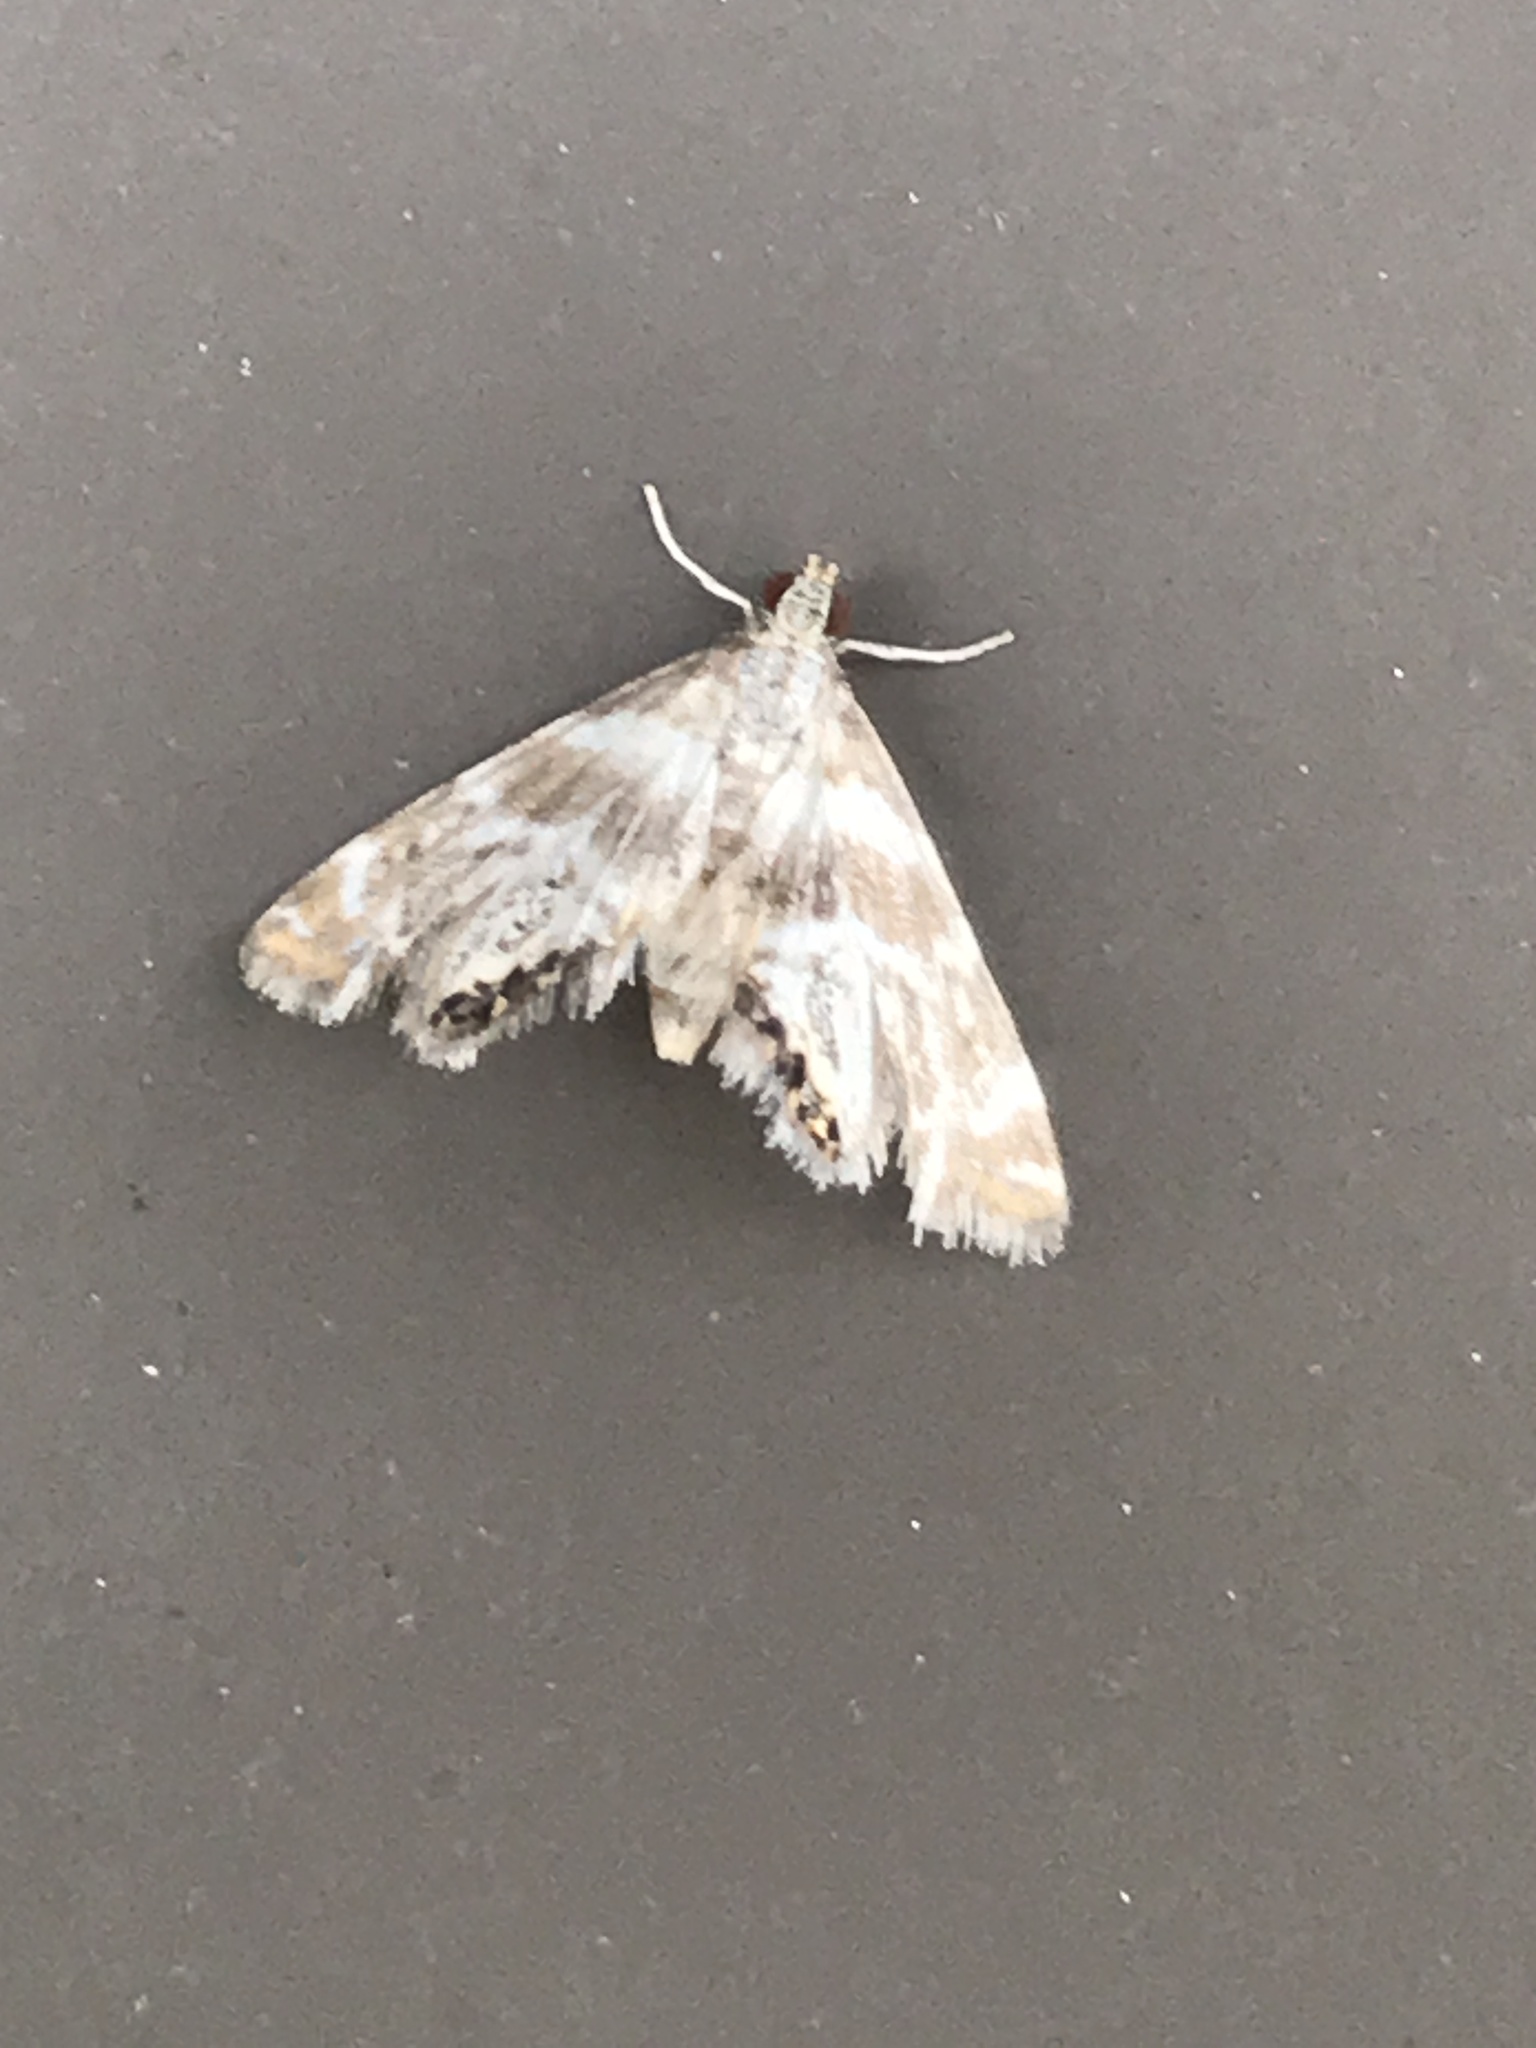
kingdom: Animalia
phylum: Arthropoda
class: Insecta
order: Lepidoptera
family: Crambidae
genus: Petrophila
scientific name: Petrophila canadensis
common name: Canadian petrophila
